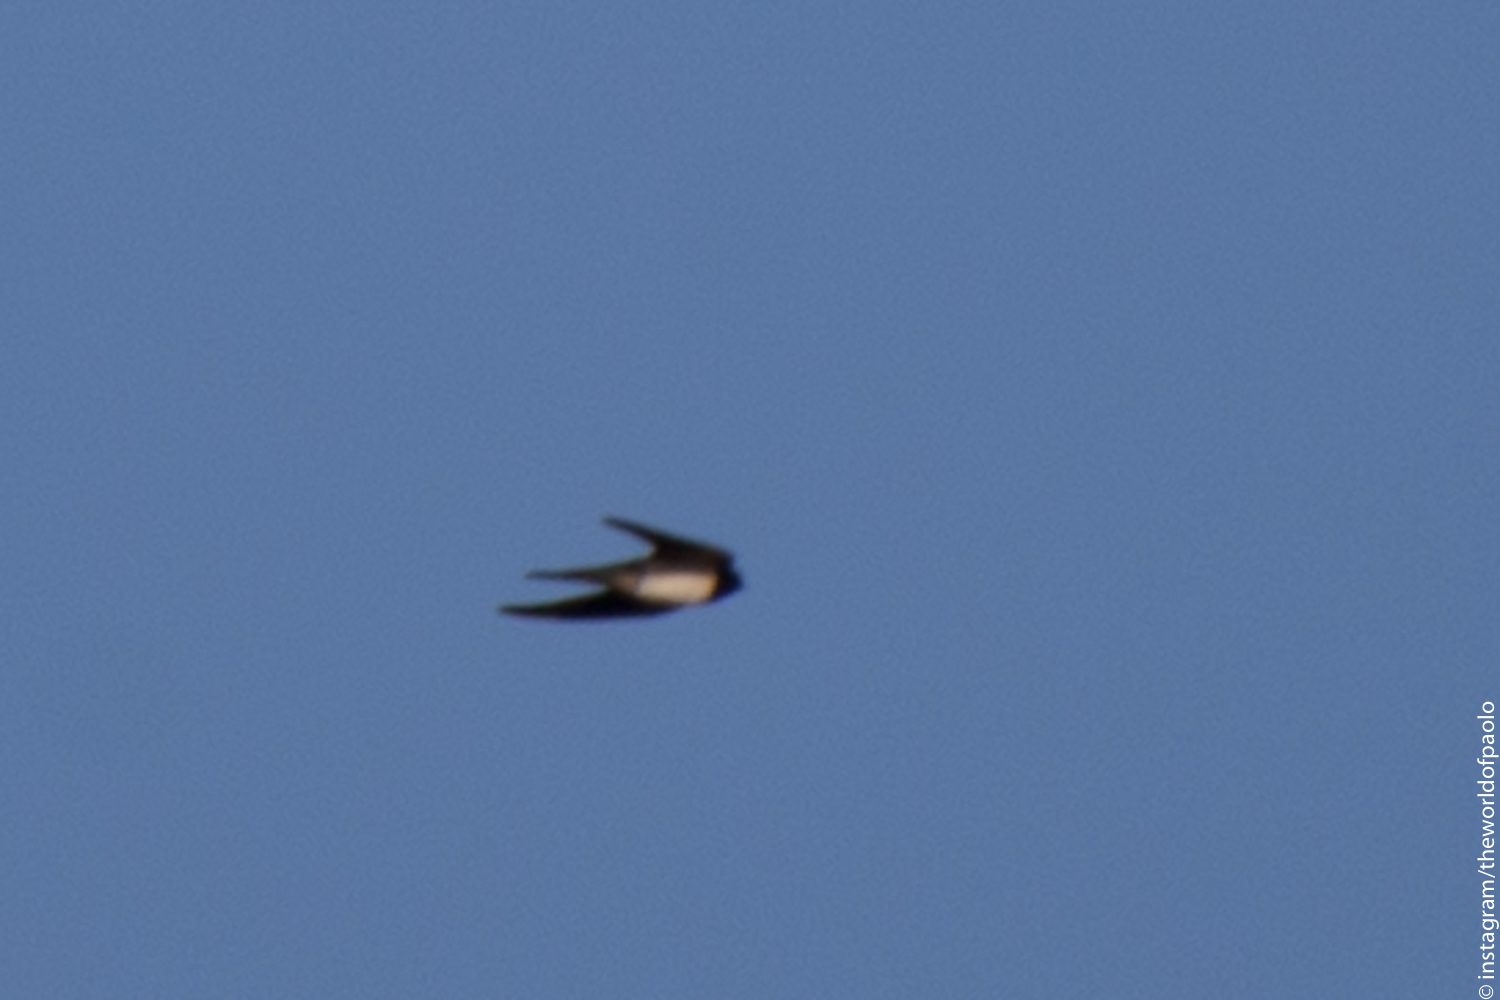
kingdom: Animalia
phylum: Chordata
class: Aves
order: Passeriformes
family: Hirundinidae
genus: Hirundo
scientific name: Hirundo rustica
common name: Barn swallow
